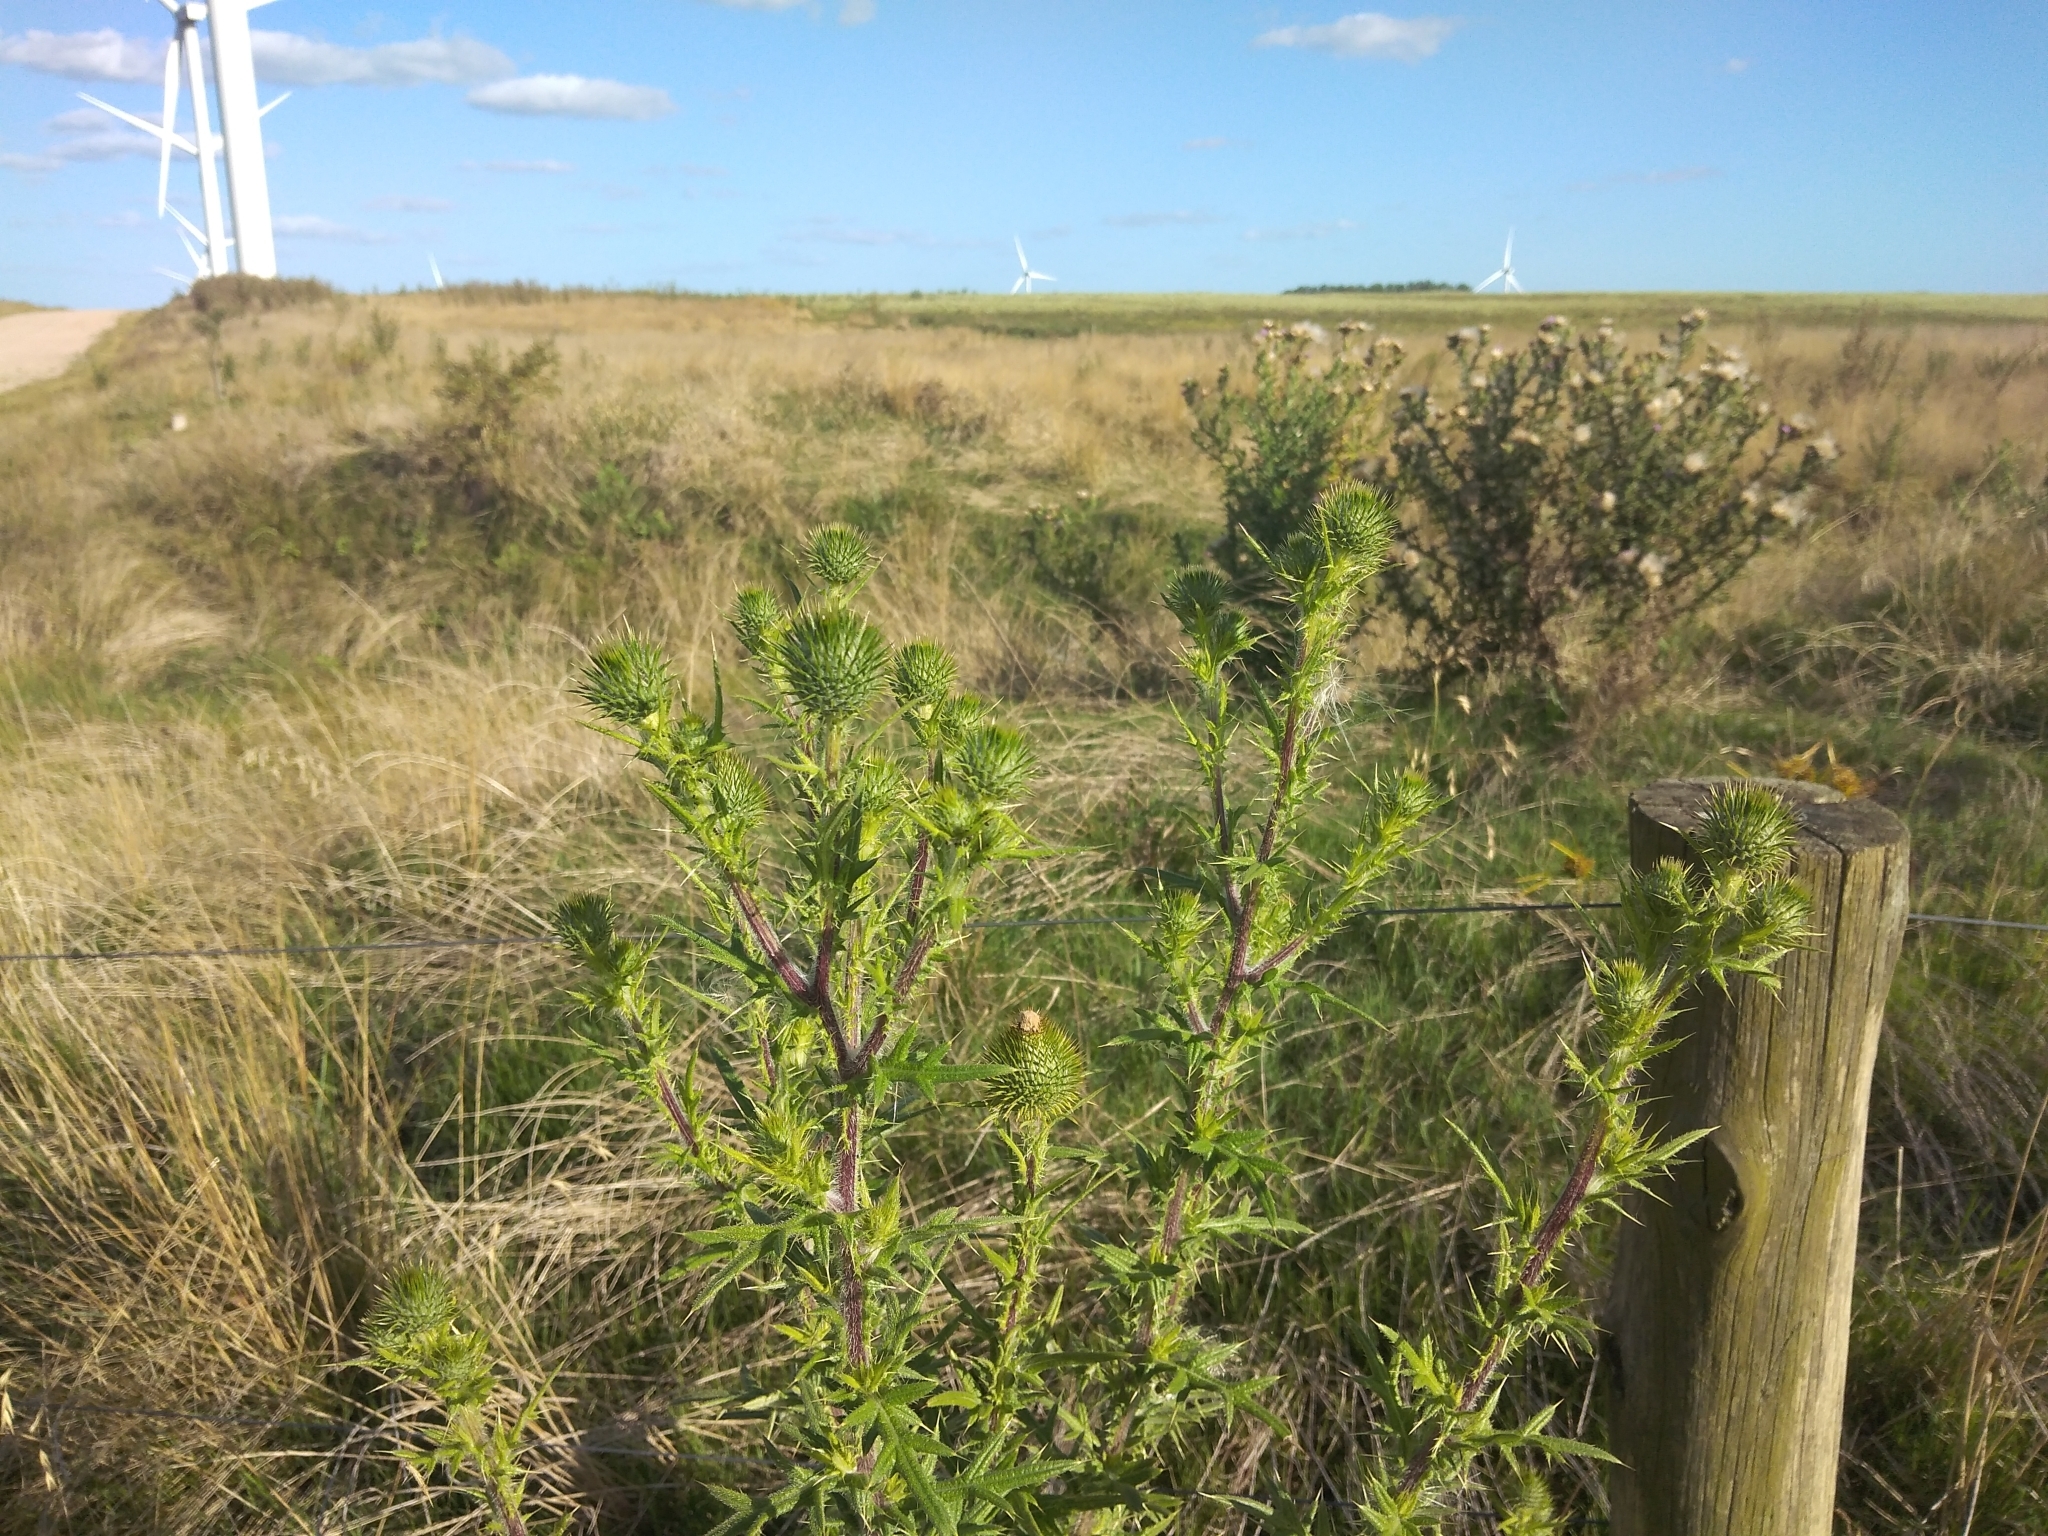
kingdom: Plantae
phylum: Tracheophyta
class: Magnoliopsida
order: Asterales
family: Asteraceae
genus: Cirsium
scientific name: Cirsium vulgare
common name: Bull thistle
